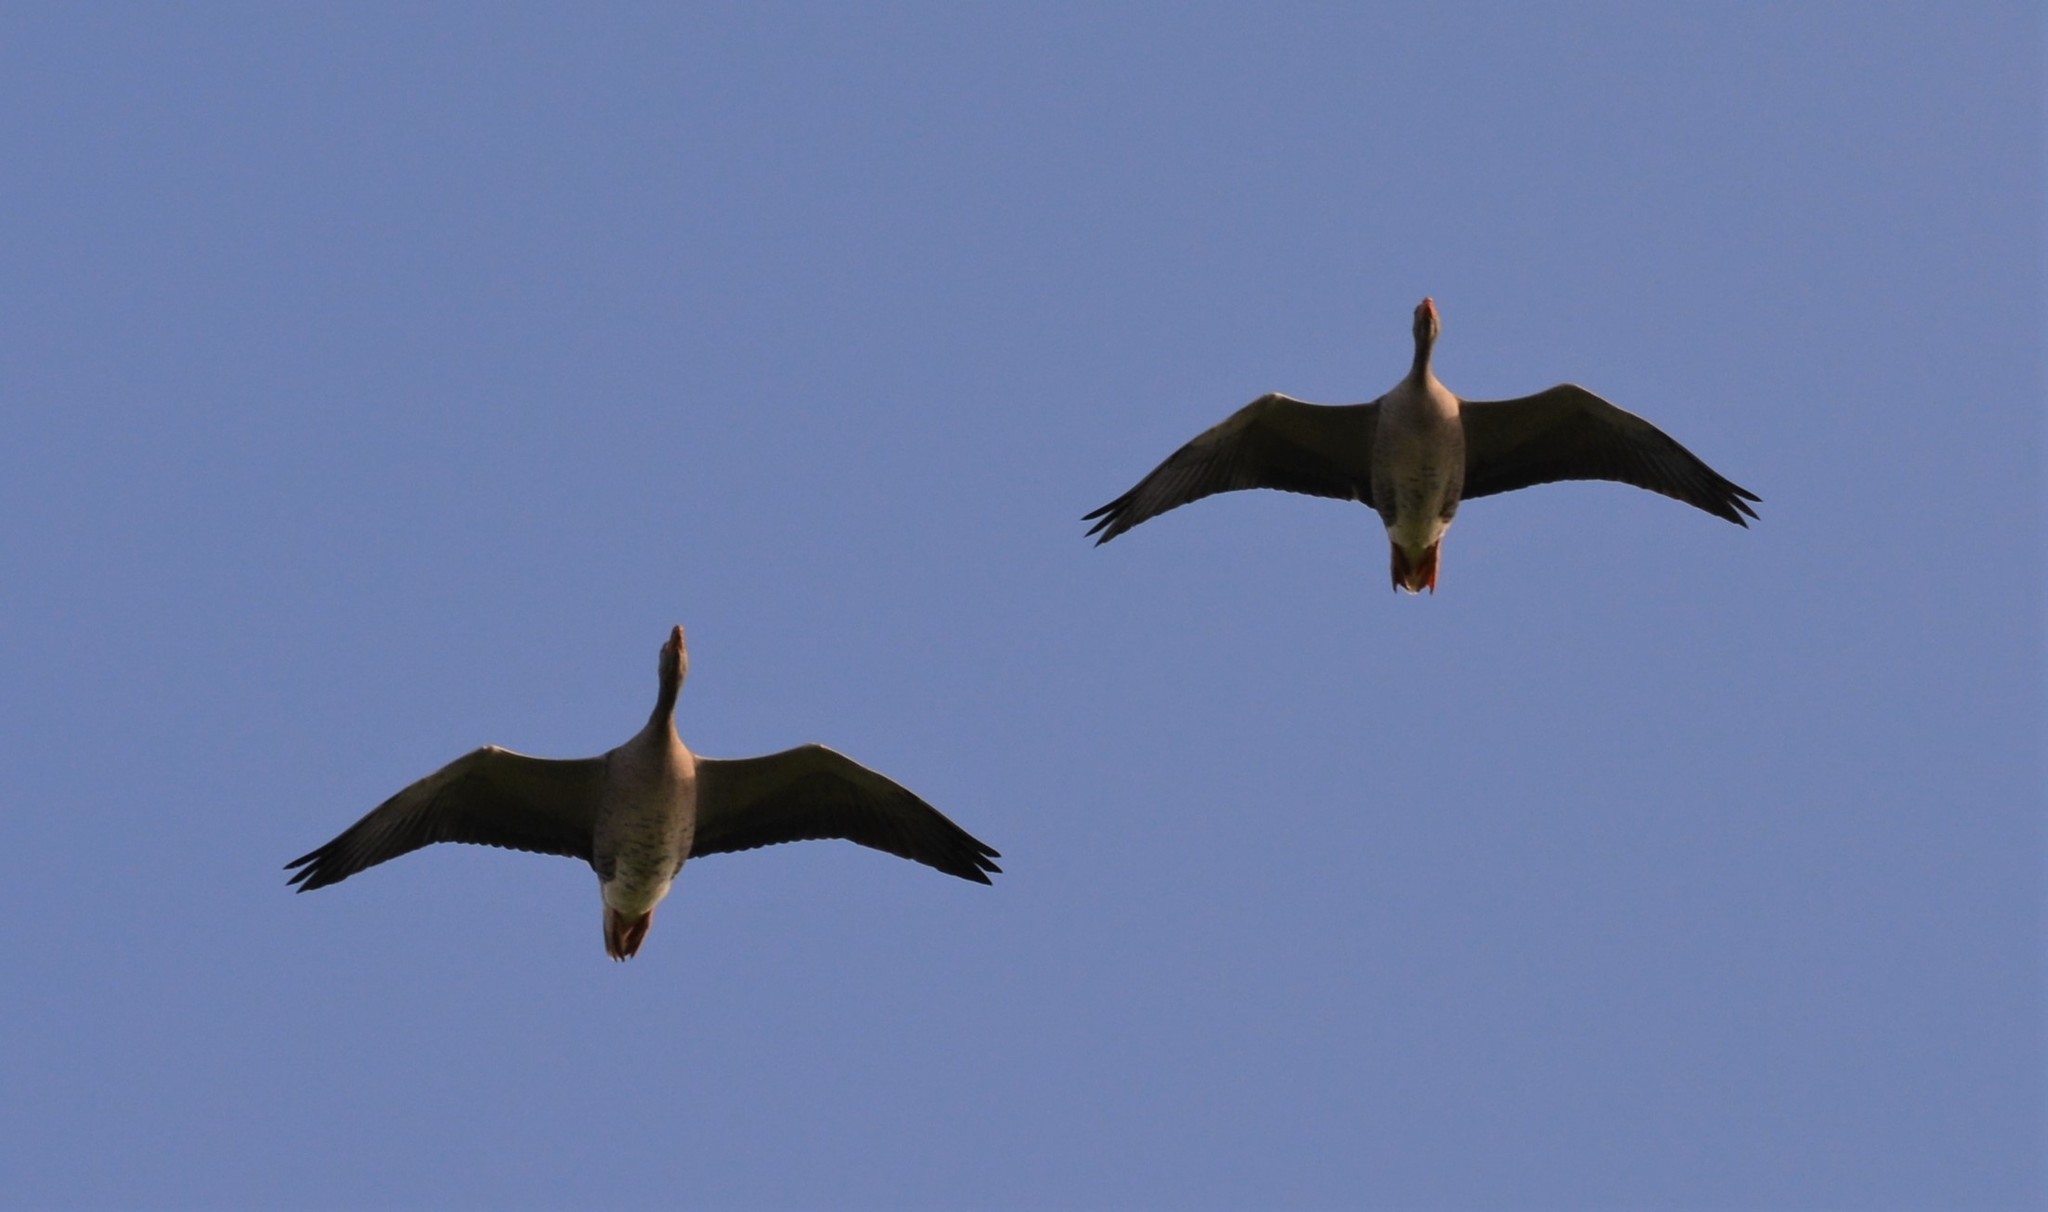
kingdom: Animalia
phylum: Chordata
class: Aves
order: Anseriformes
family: Anatidae
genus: Anser
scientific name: Anser anser
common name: Greylag goose
